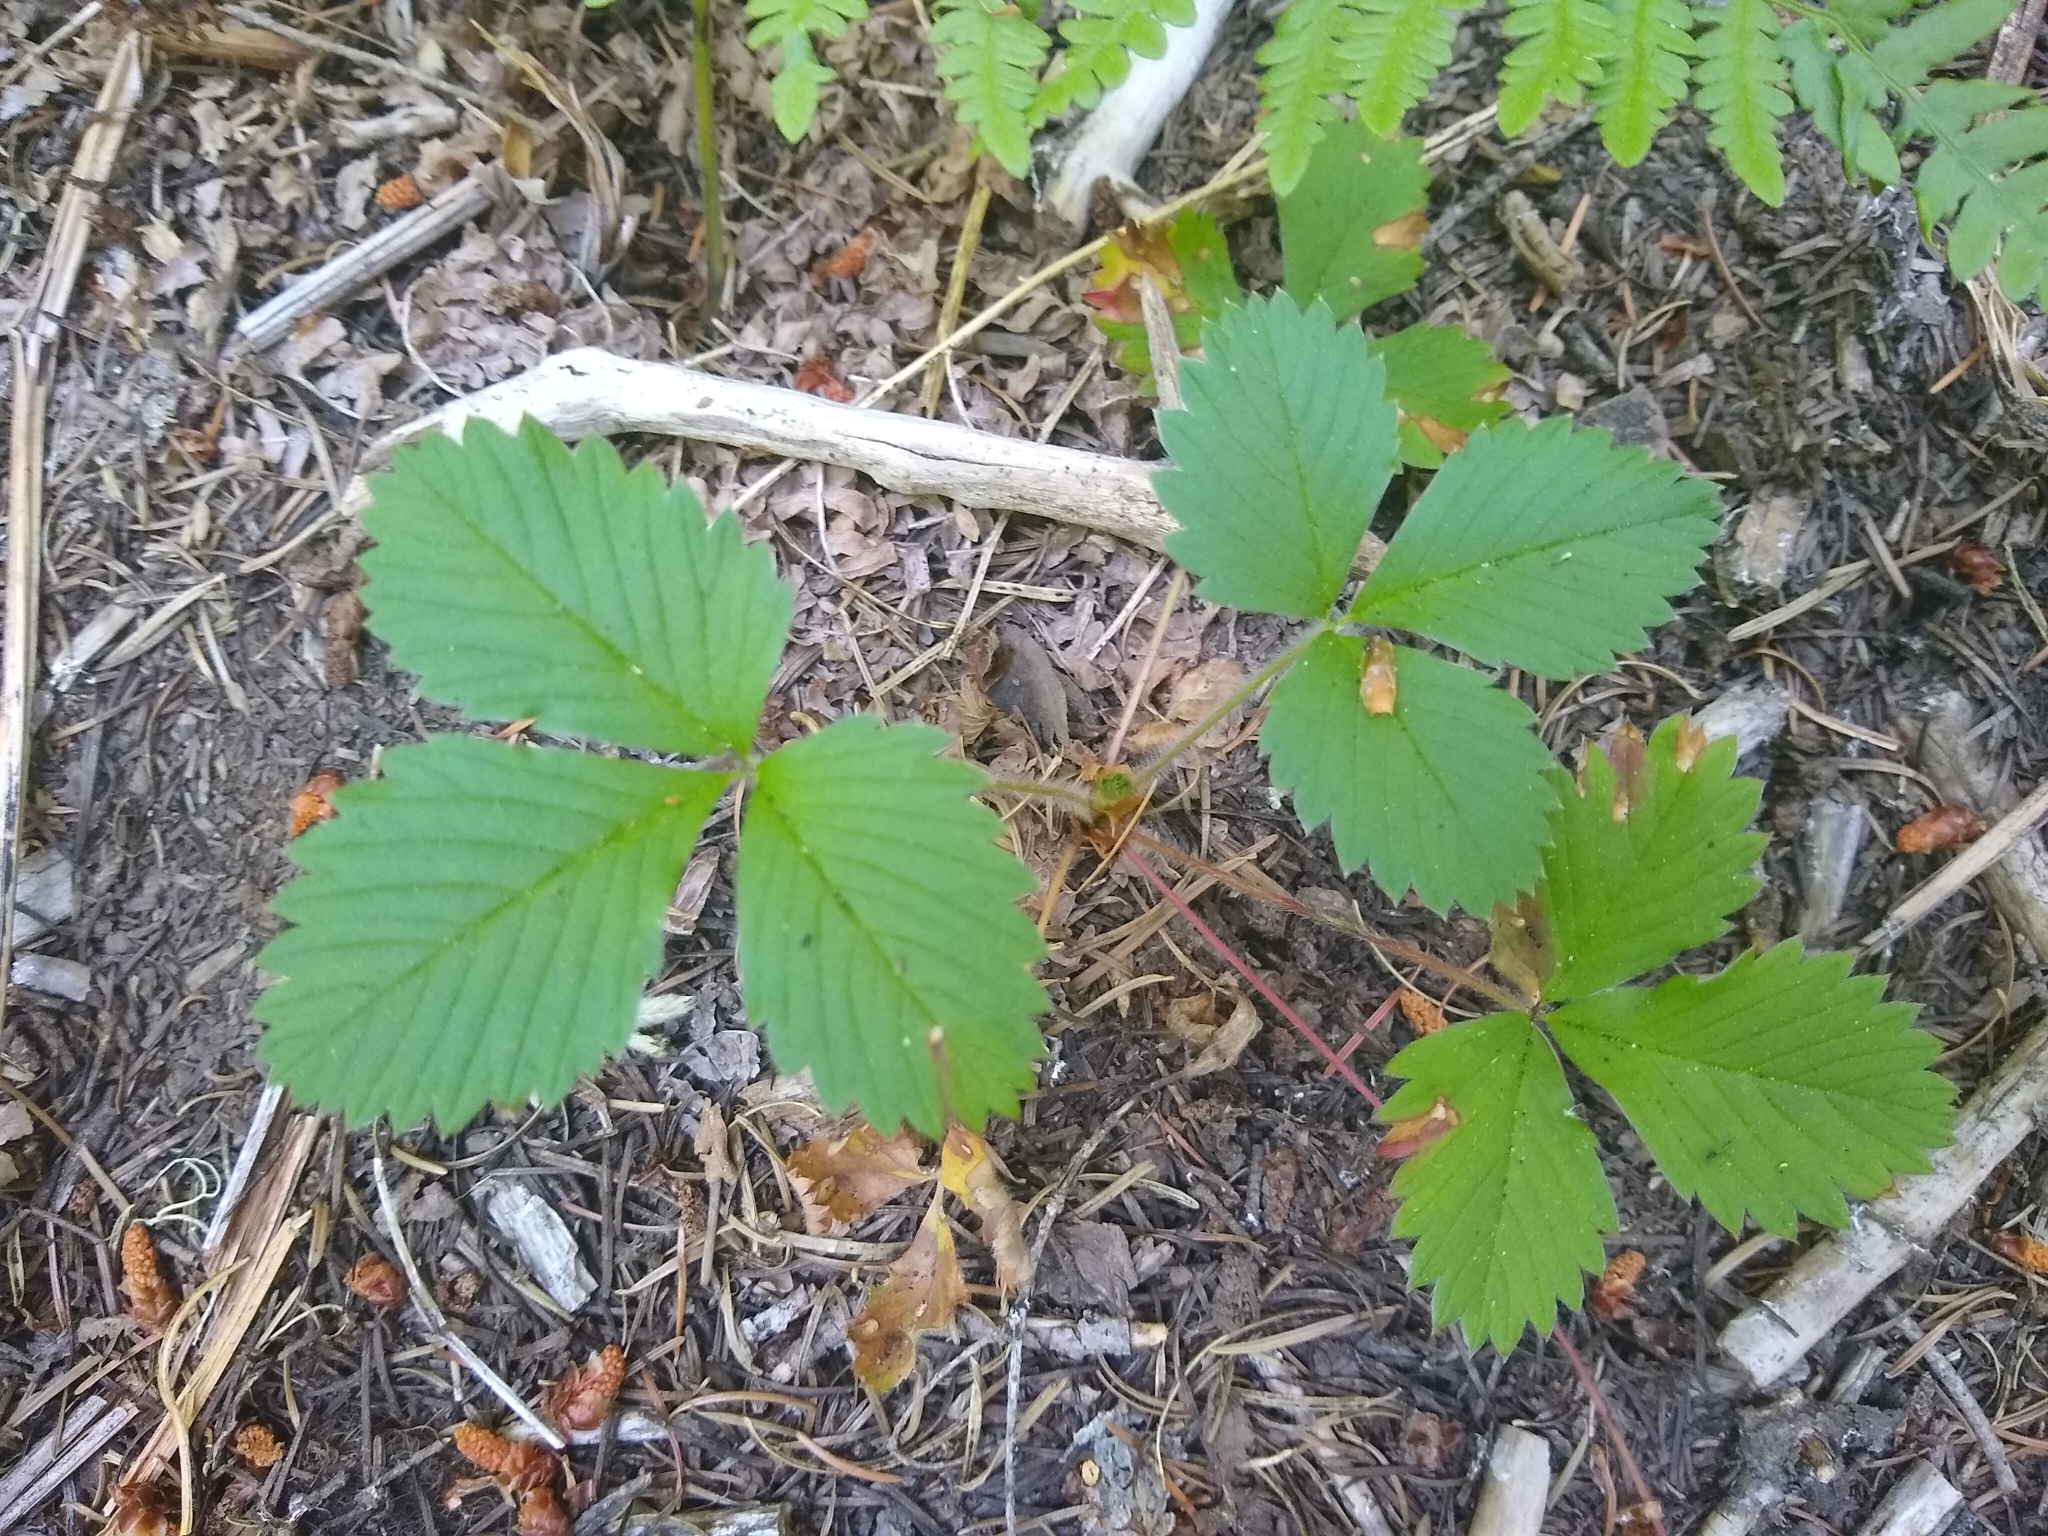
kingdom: Plantae
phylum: Tracheophyta
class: Magnoliopsida
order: Rosales
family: Rosaceae
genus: Fragaria
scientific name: Fragaria vesca
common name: Wild strawberry
